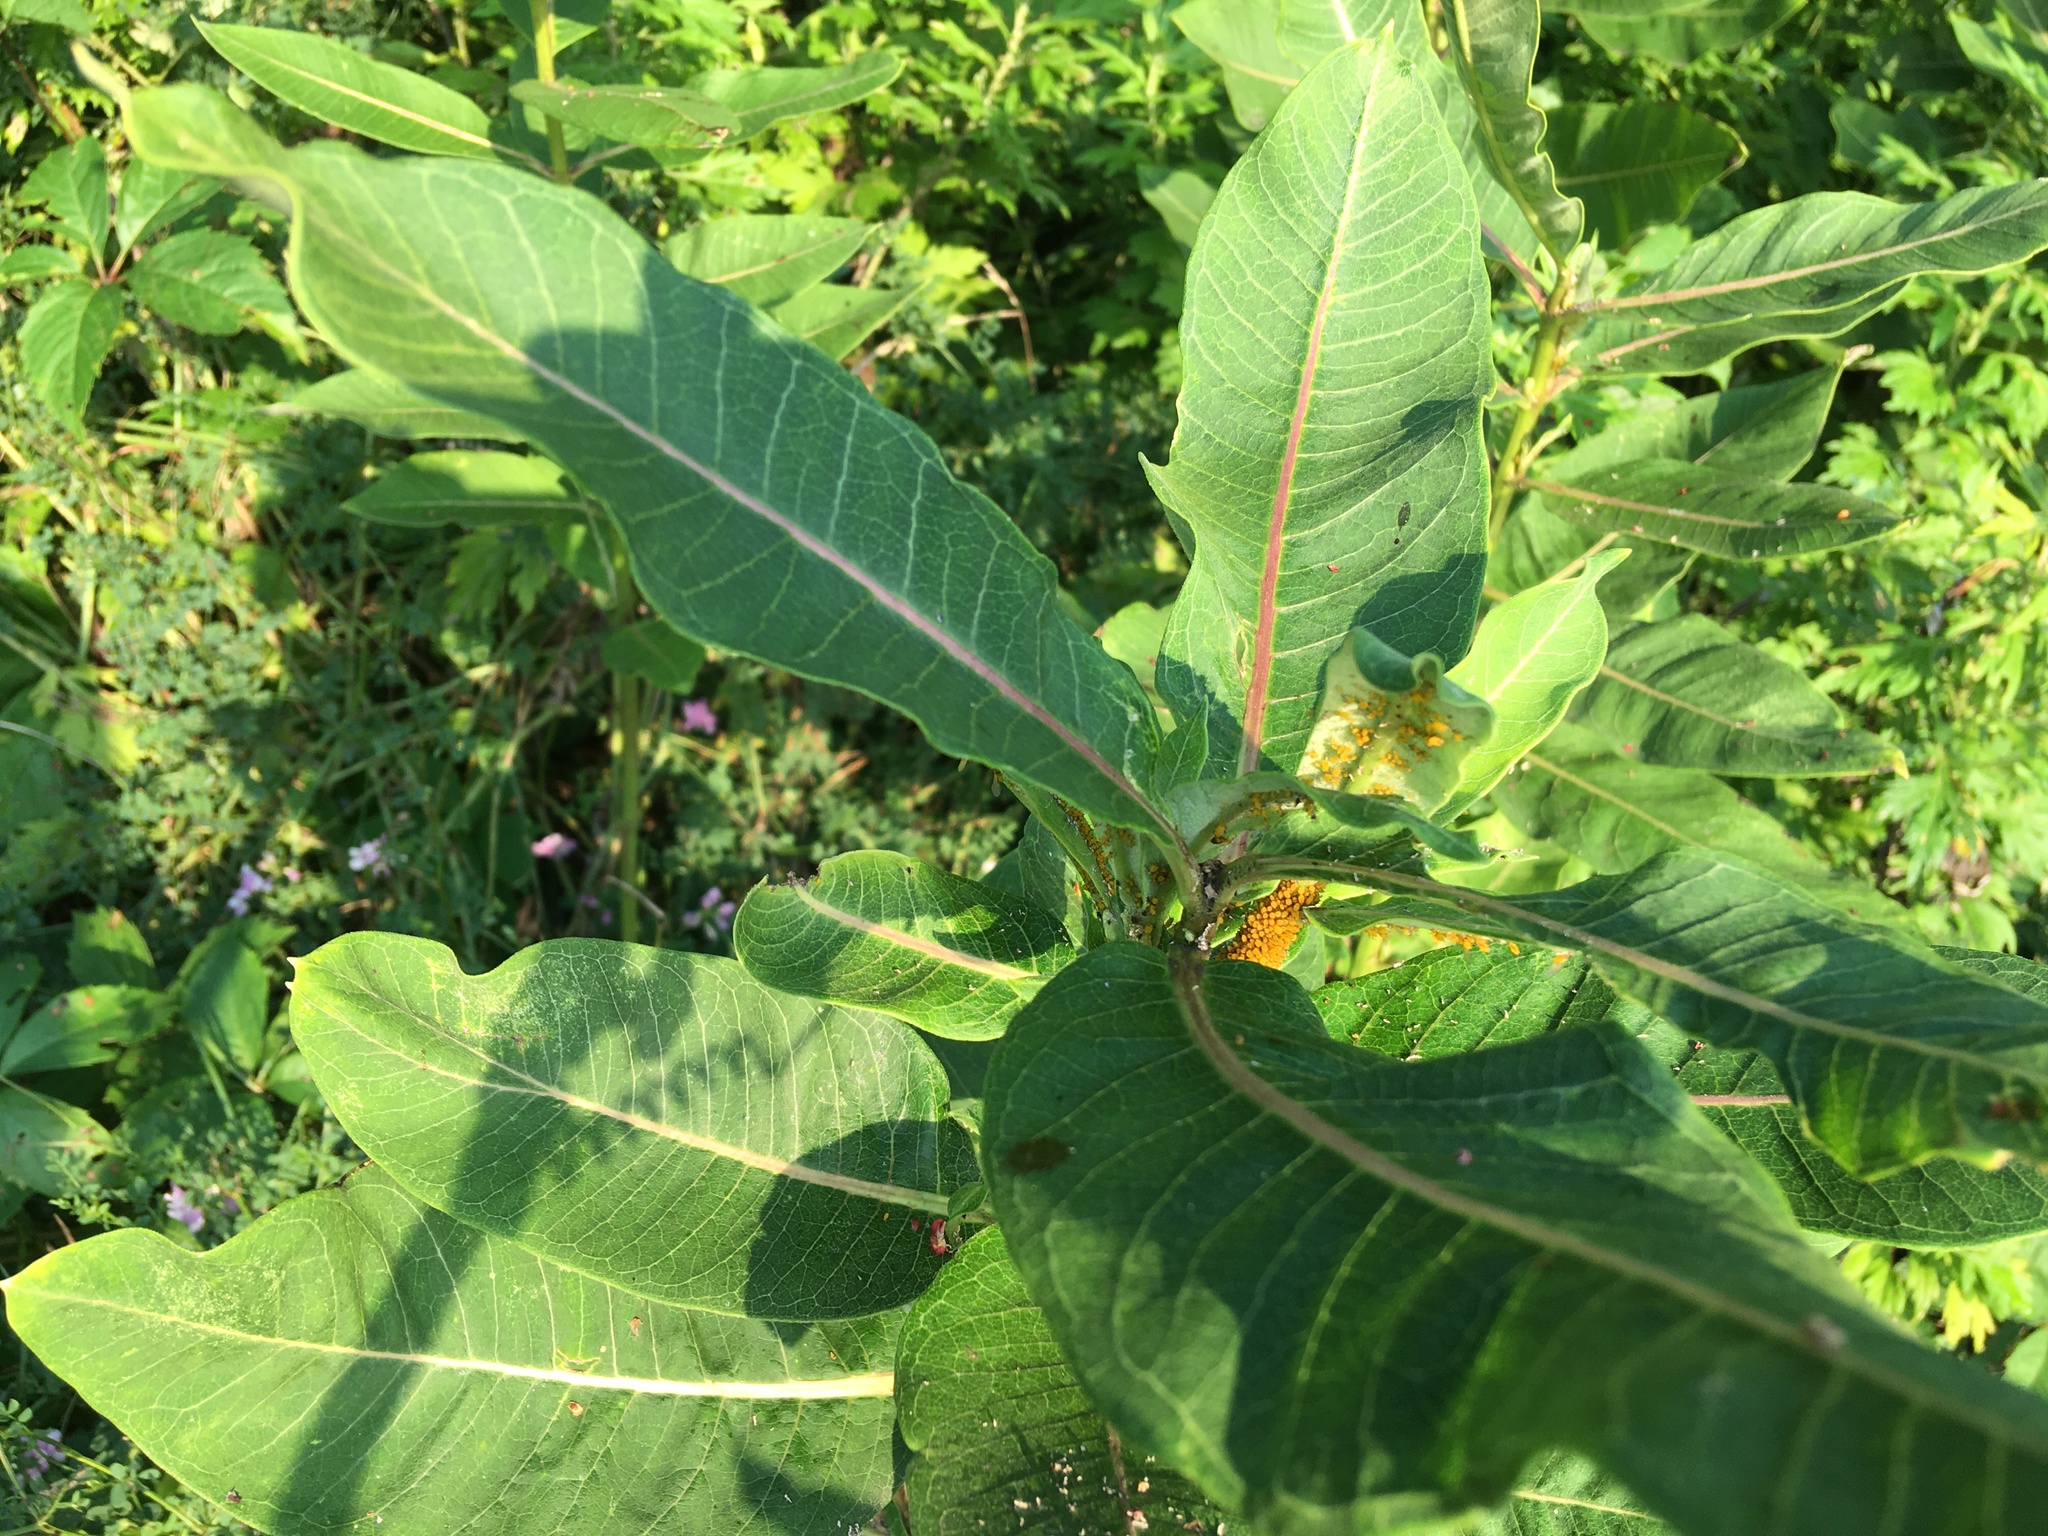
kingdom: Plantae
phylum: Tracheophyta
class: Magnoliopsida
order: Gentianales
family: Apocynaceae
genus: Asclepias
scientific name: Asclepias syriaca
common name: Common milkweed
